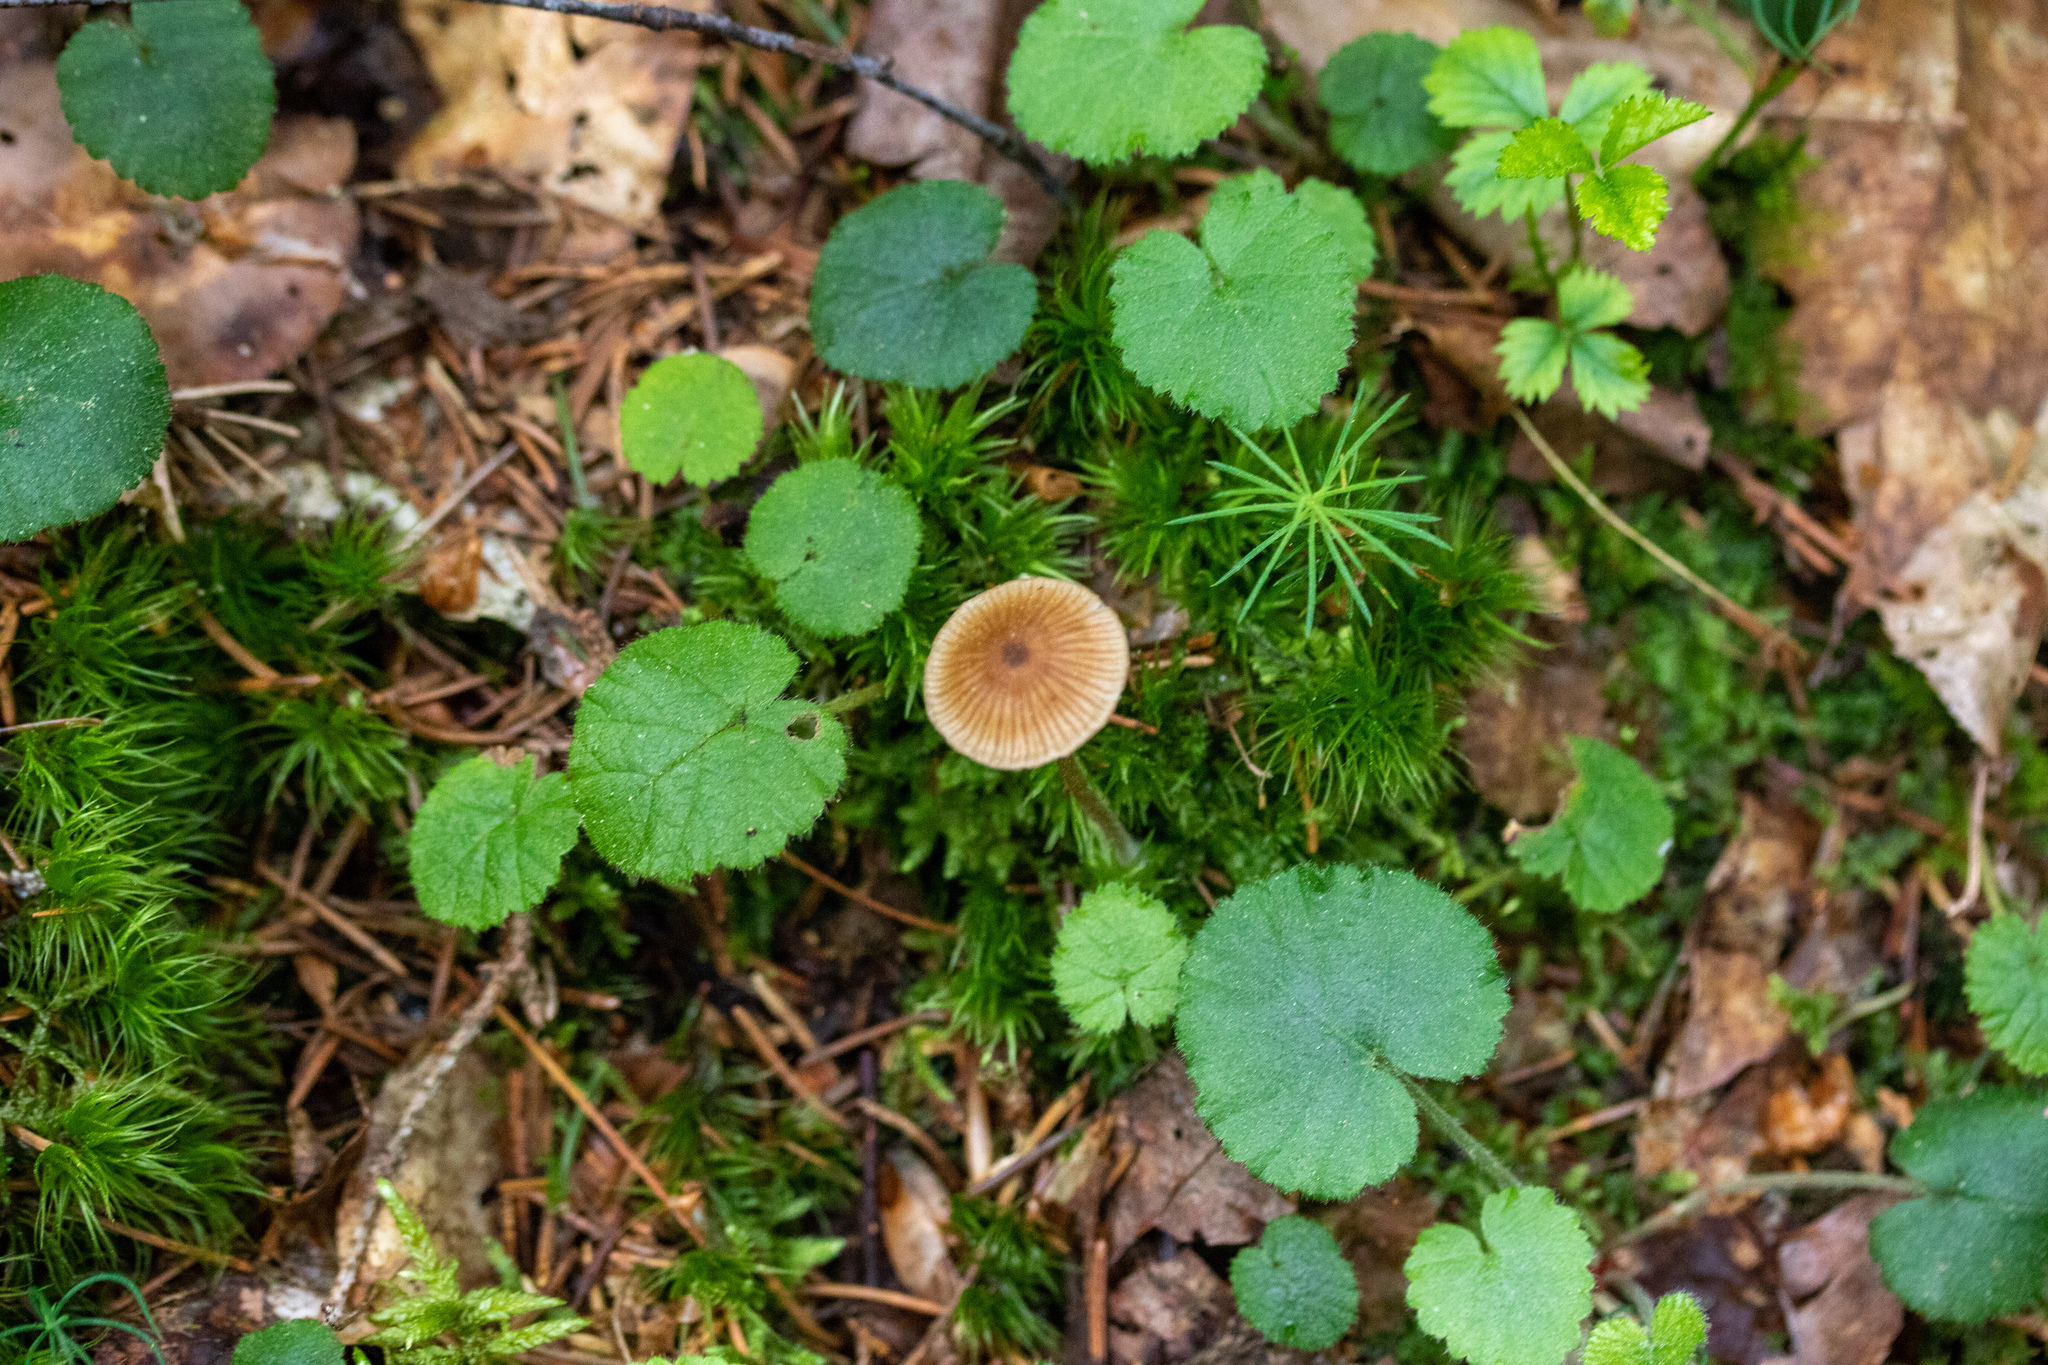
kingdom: Fungi
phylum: Basidiomycota
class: Agaricomycetes
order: Agaricales
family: Hymenogastraceae
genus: Galerina
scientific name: Galerina vittiformis
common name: Hairy leg bell
